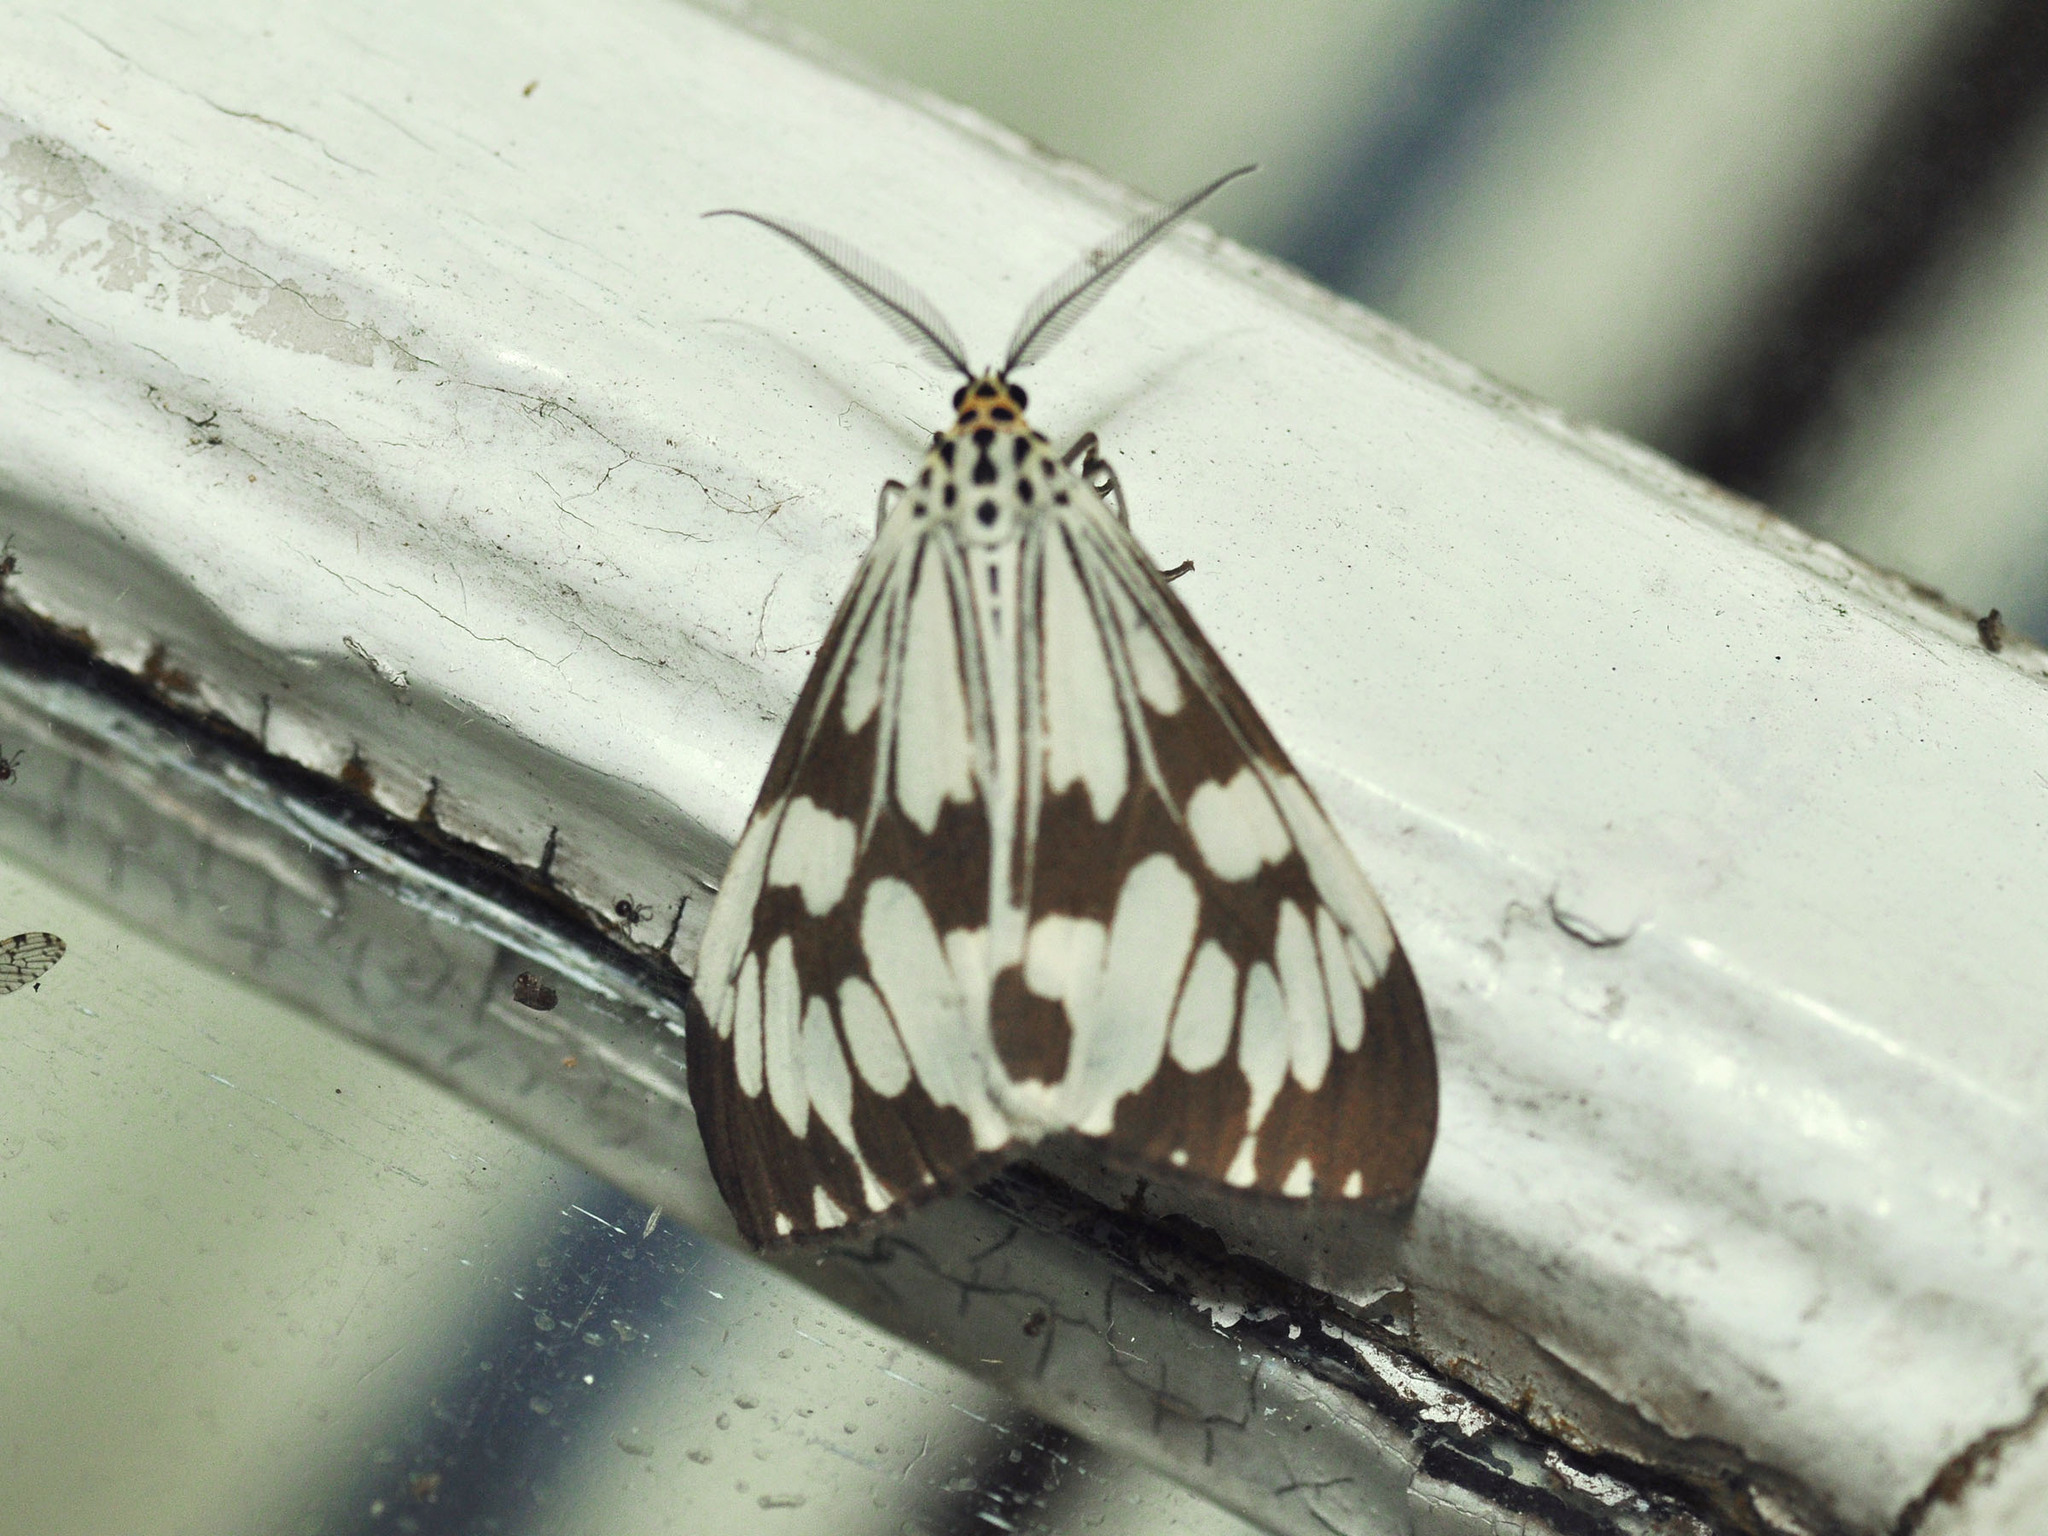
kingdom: Animalia
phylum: Arthropoda
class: Insecta
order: Lepidoptera
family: Erebidae
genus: Nyctemera
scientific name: Nyctemera adversata
